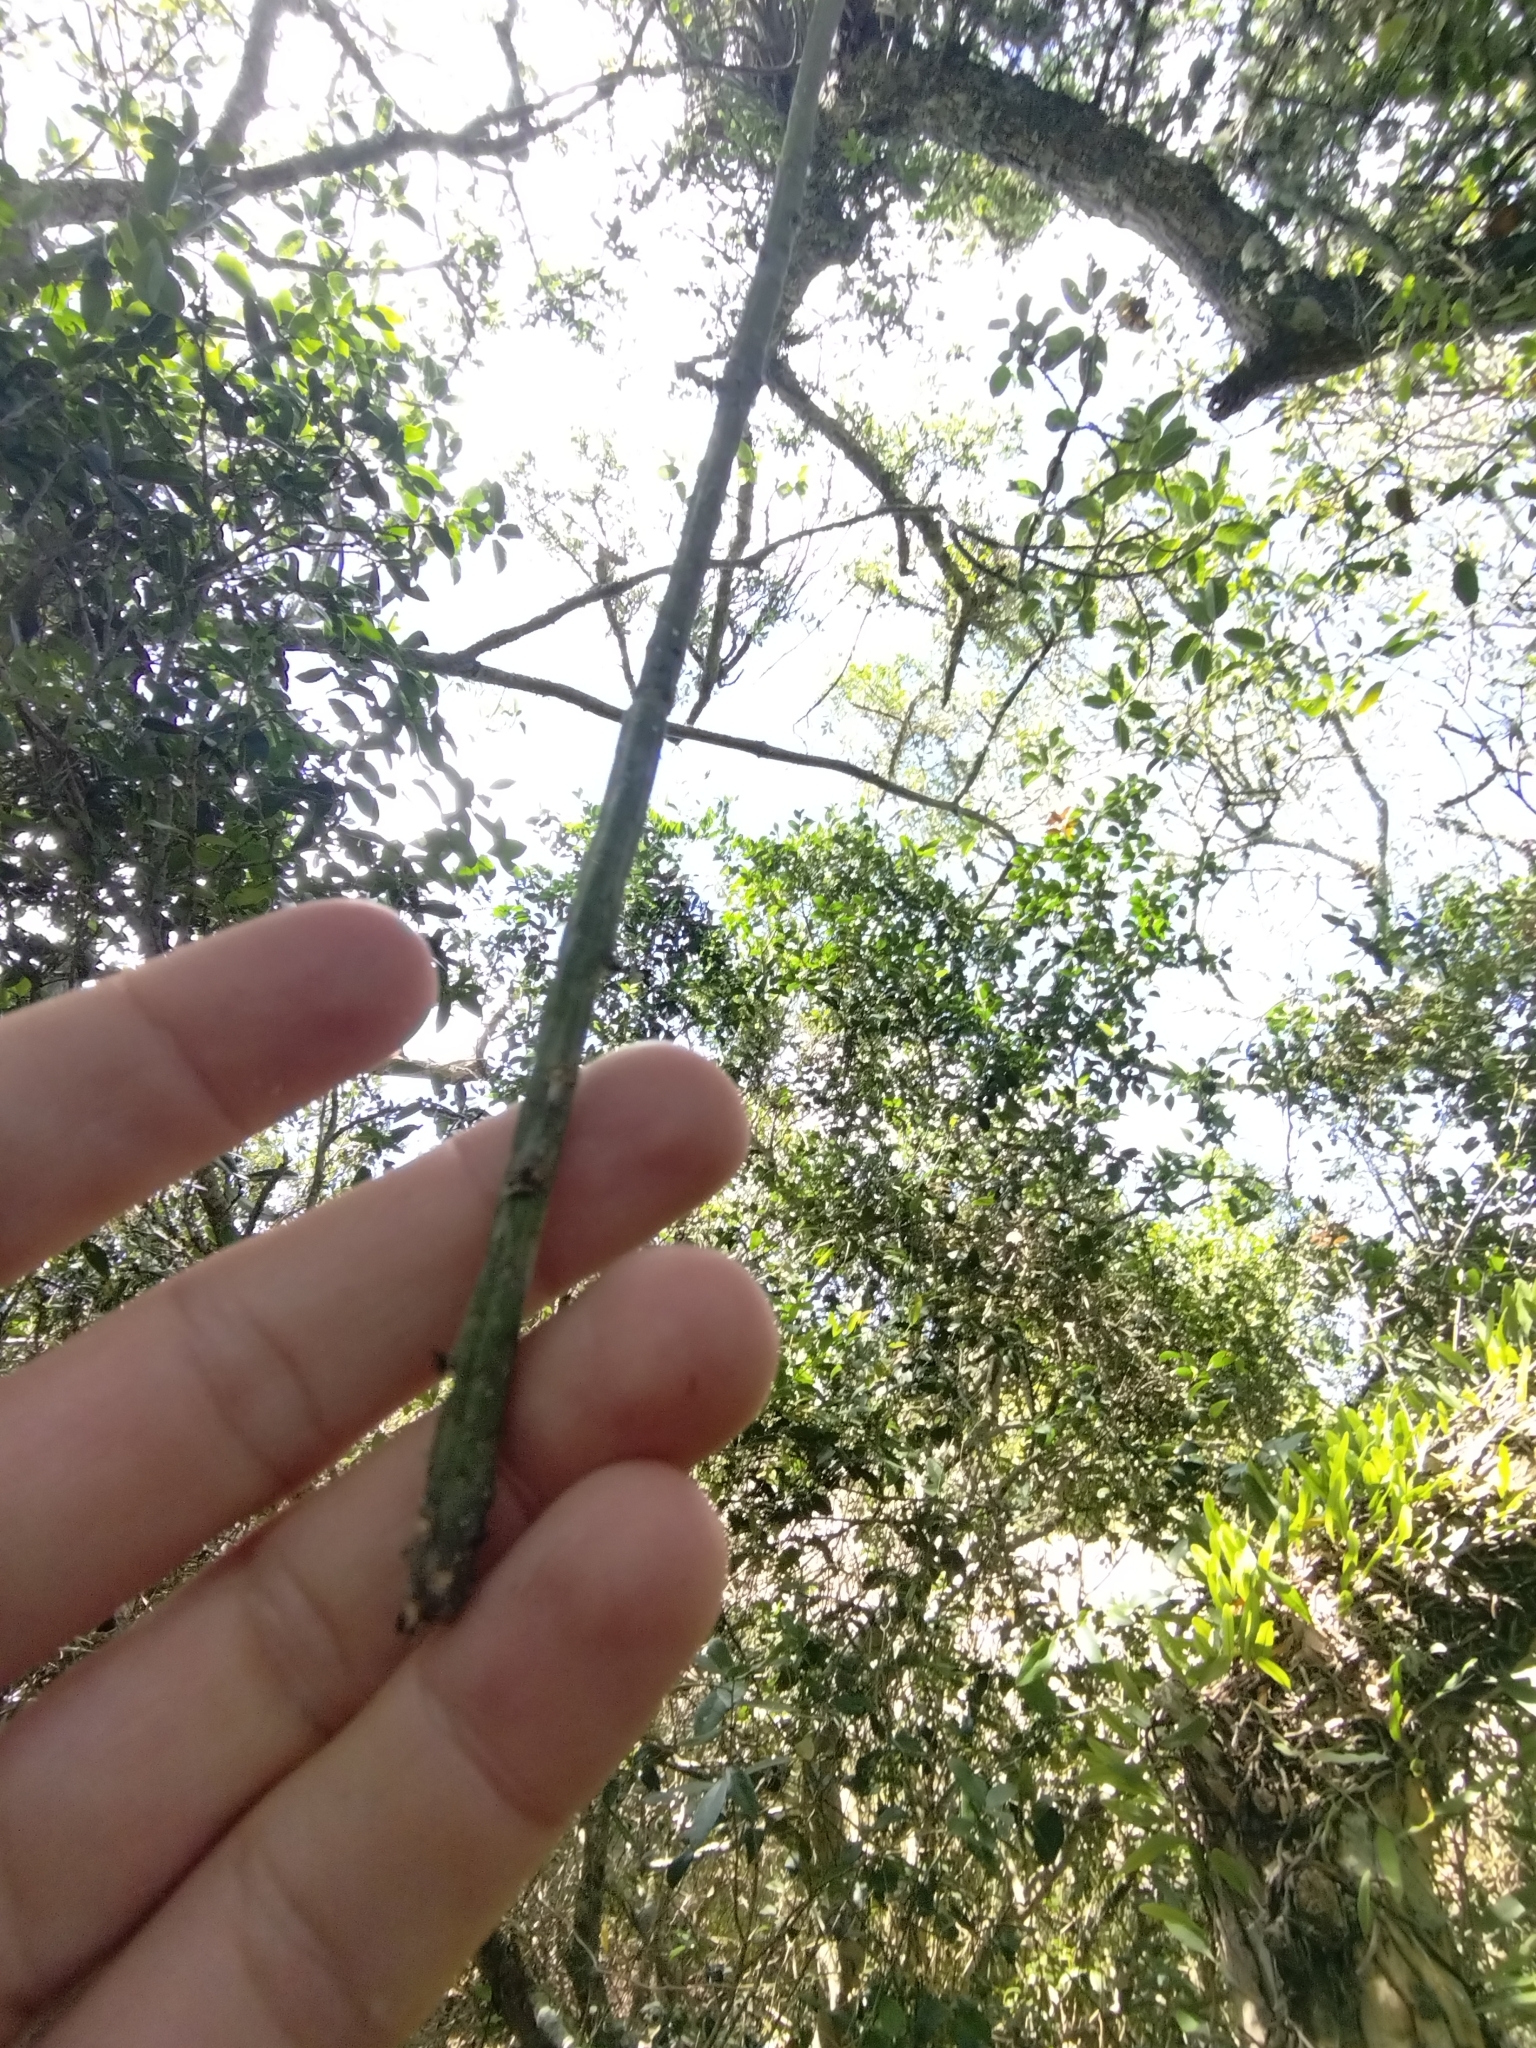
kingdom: Plantae
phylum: Tracheophyta
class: Magnoliopsida
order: Caryophyllales
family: Cactaceae
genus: Lepismium
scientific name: Lepismium lumbricoides
